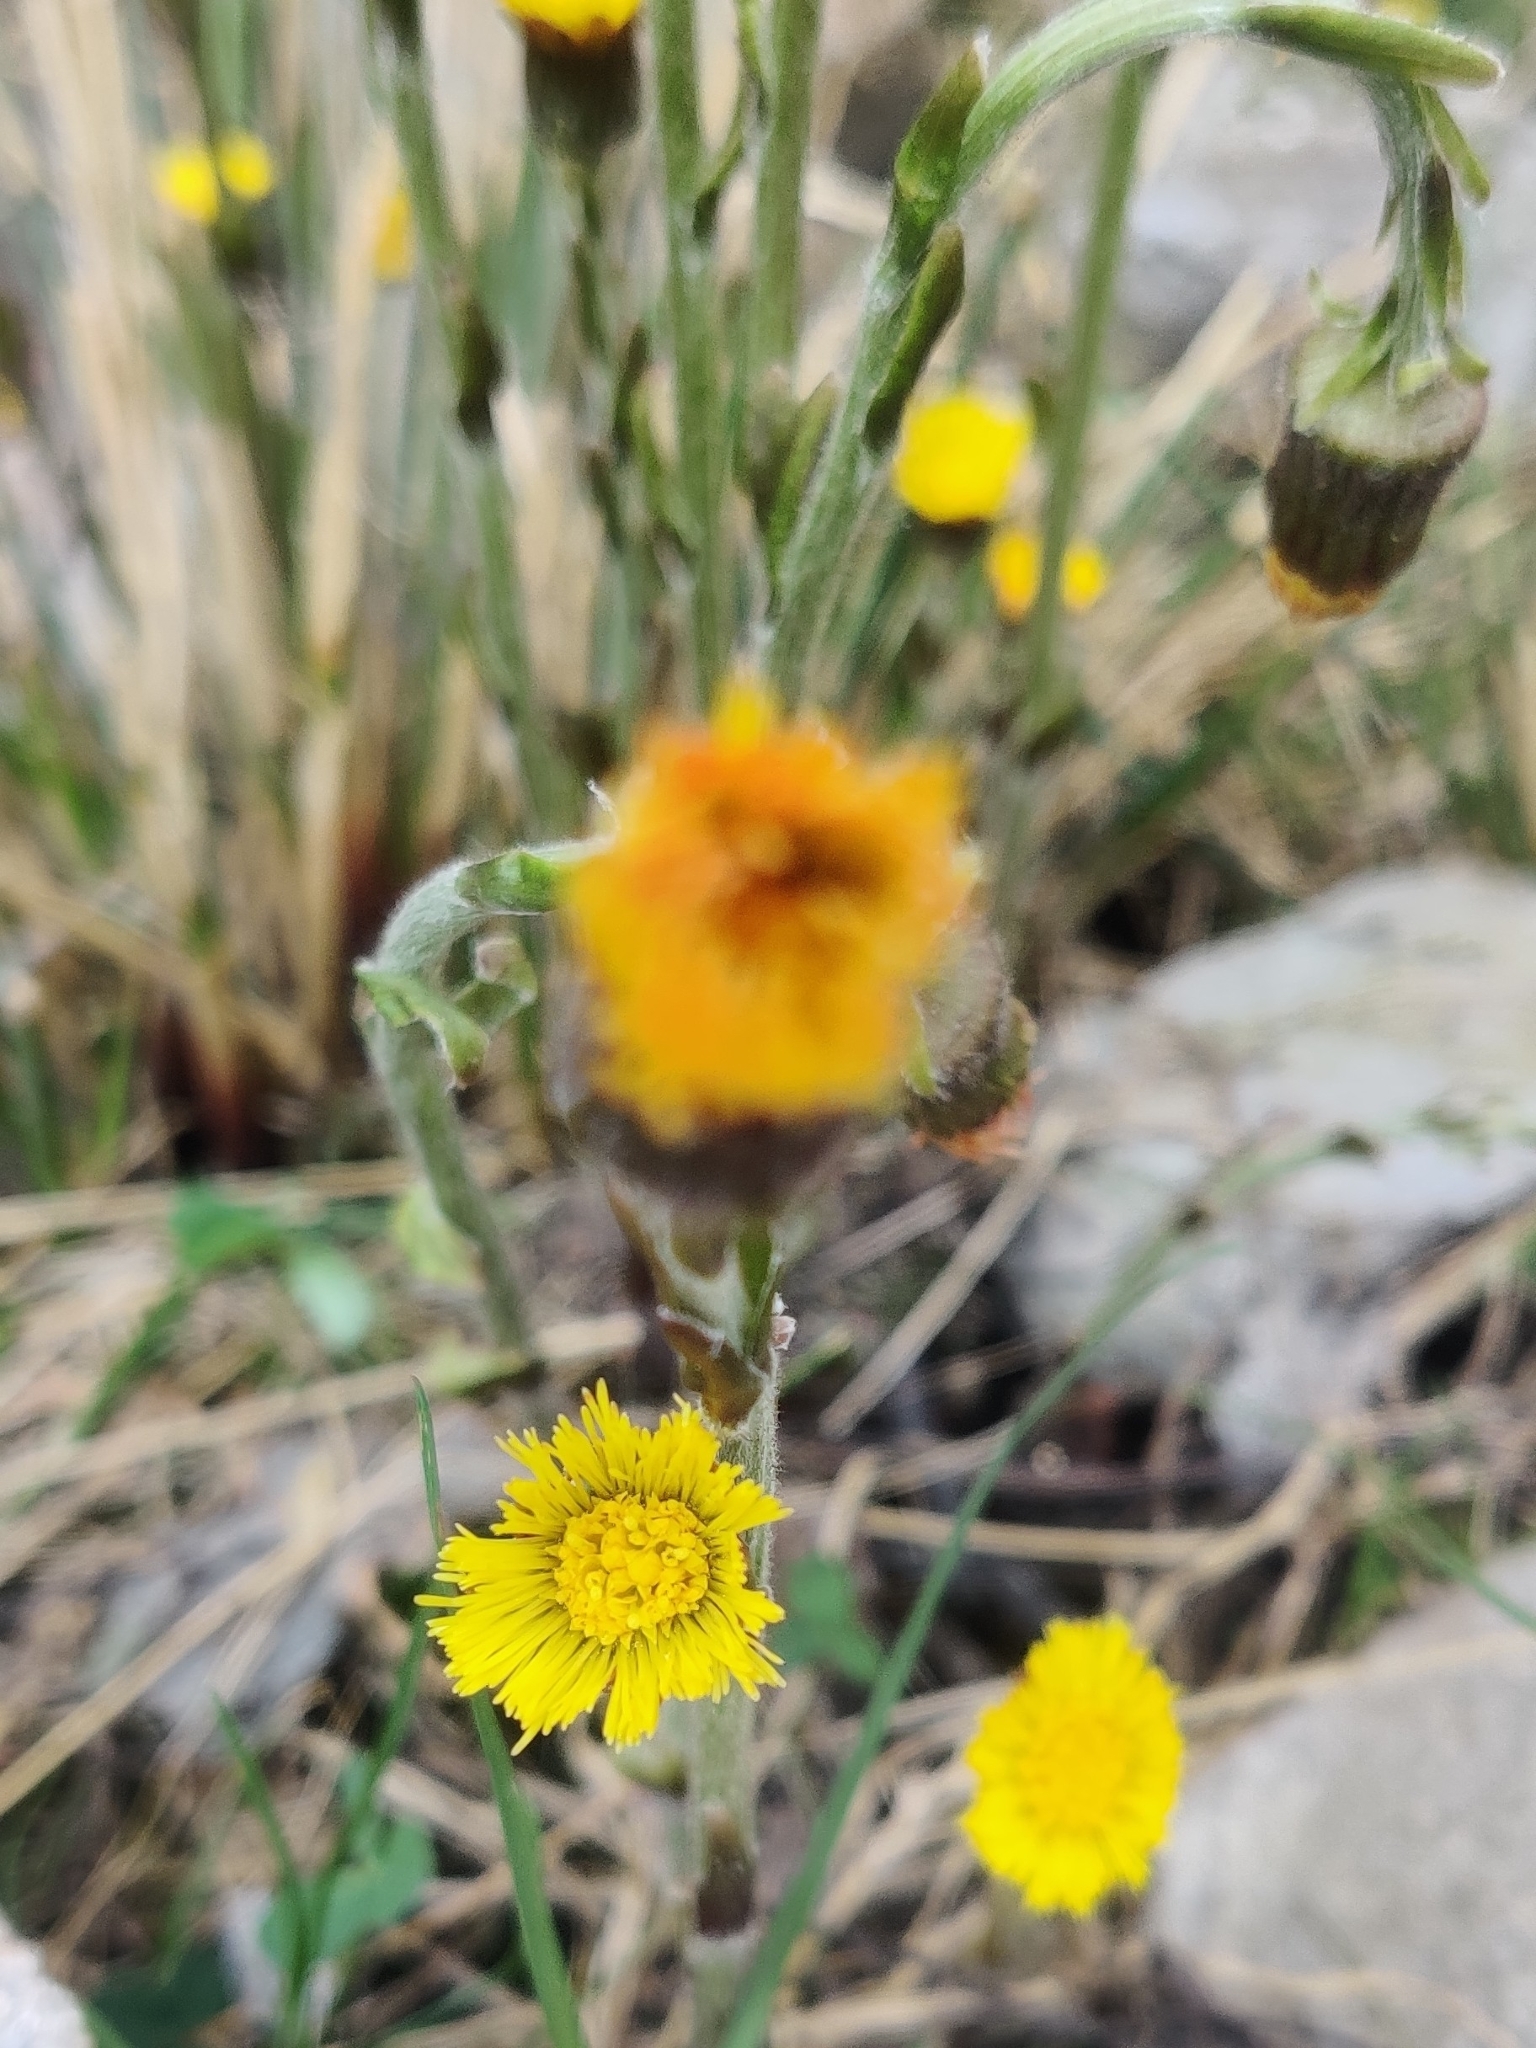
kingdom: Plantae
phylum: Tracheophyta
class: Magnoliopsida
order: Asterales
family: Asteraceae
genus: Tussilago
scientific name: Tussilago farfara
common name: Coltsfoot
